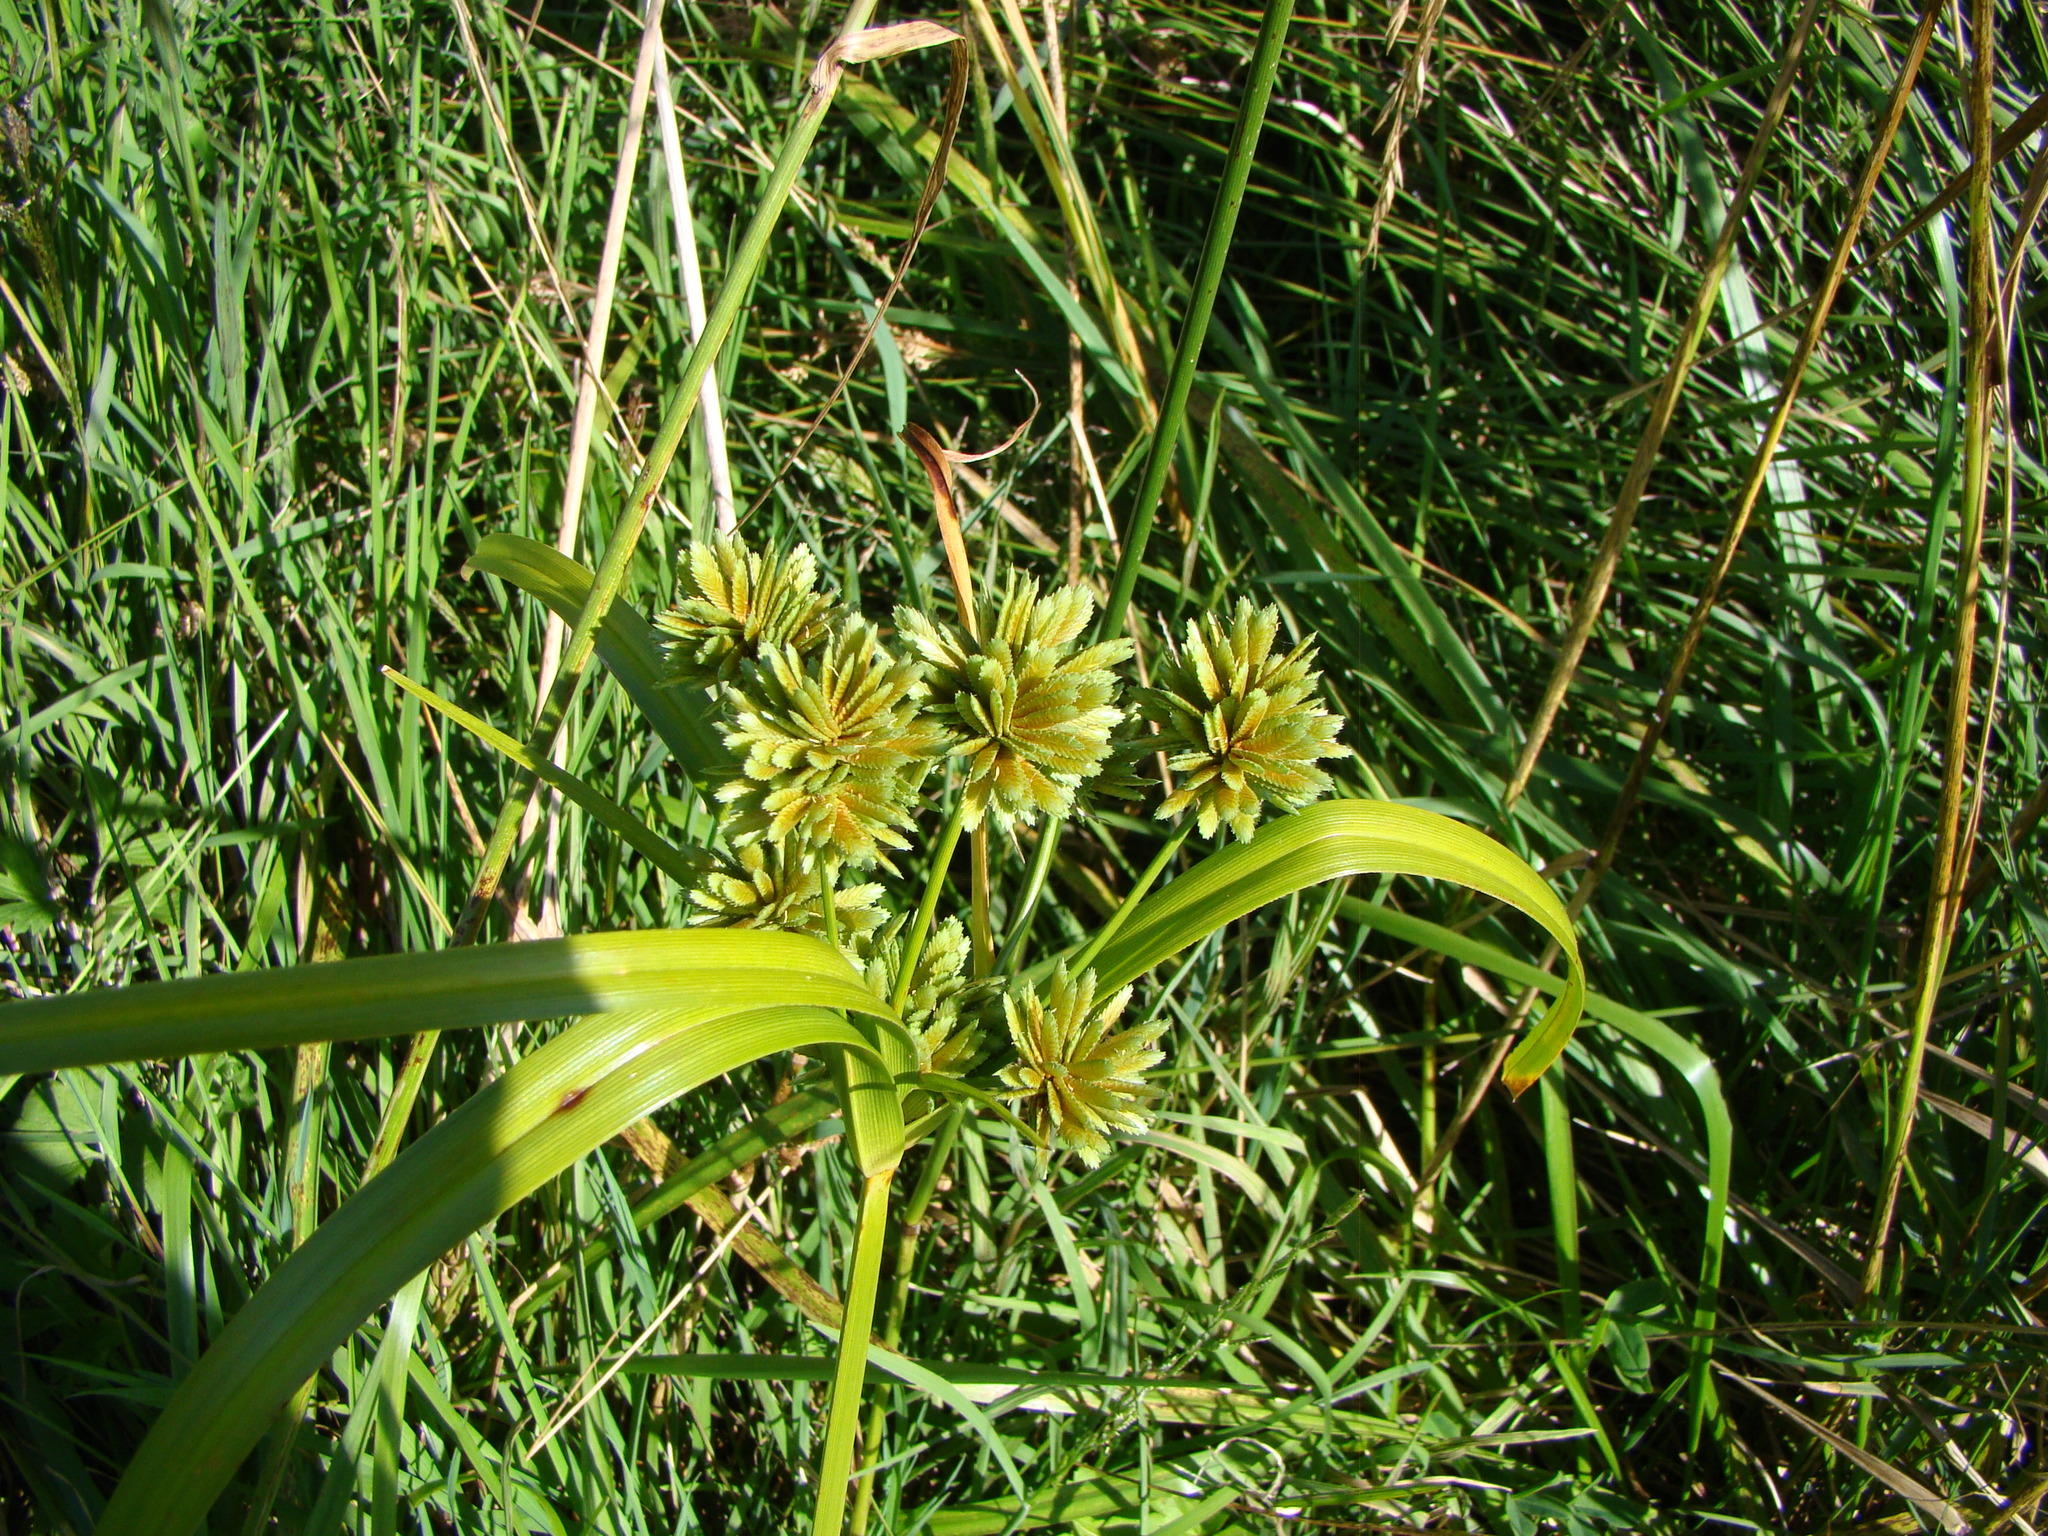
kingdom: Plantae
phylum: Tracheophyta
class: Liliopsida
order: Poales
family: Cyperaceae
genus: Cyperus
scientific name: Cyperus eragrostis
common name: Tall flatsedge
